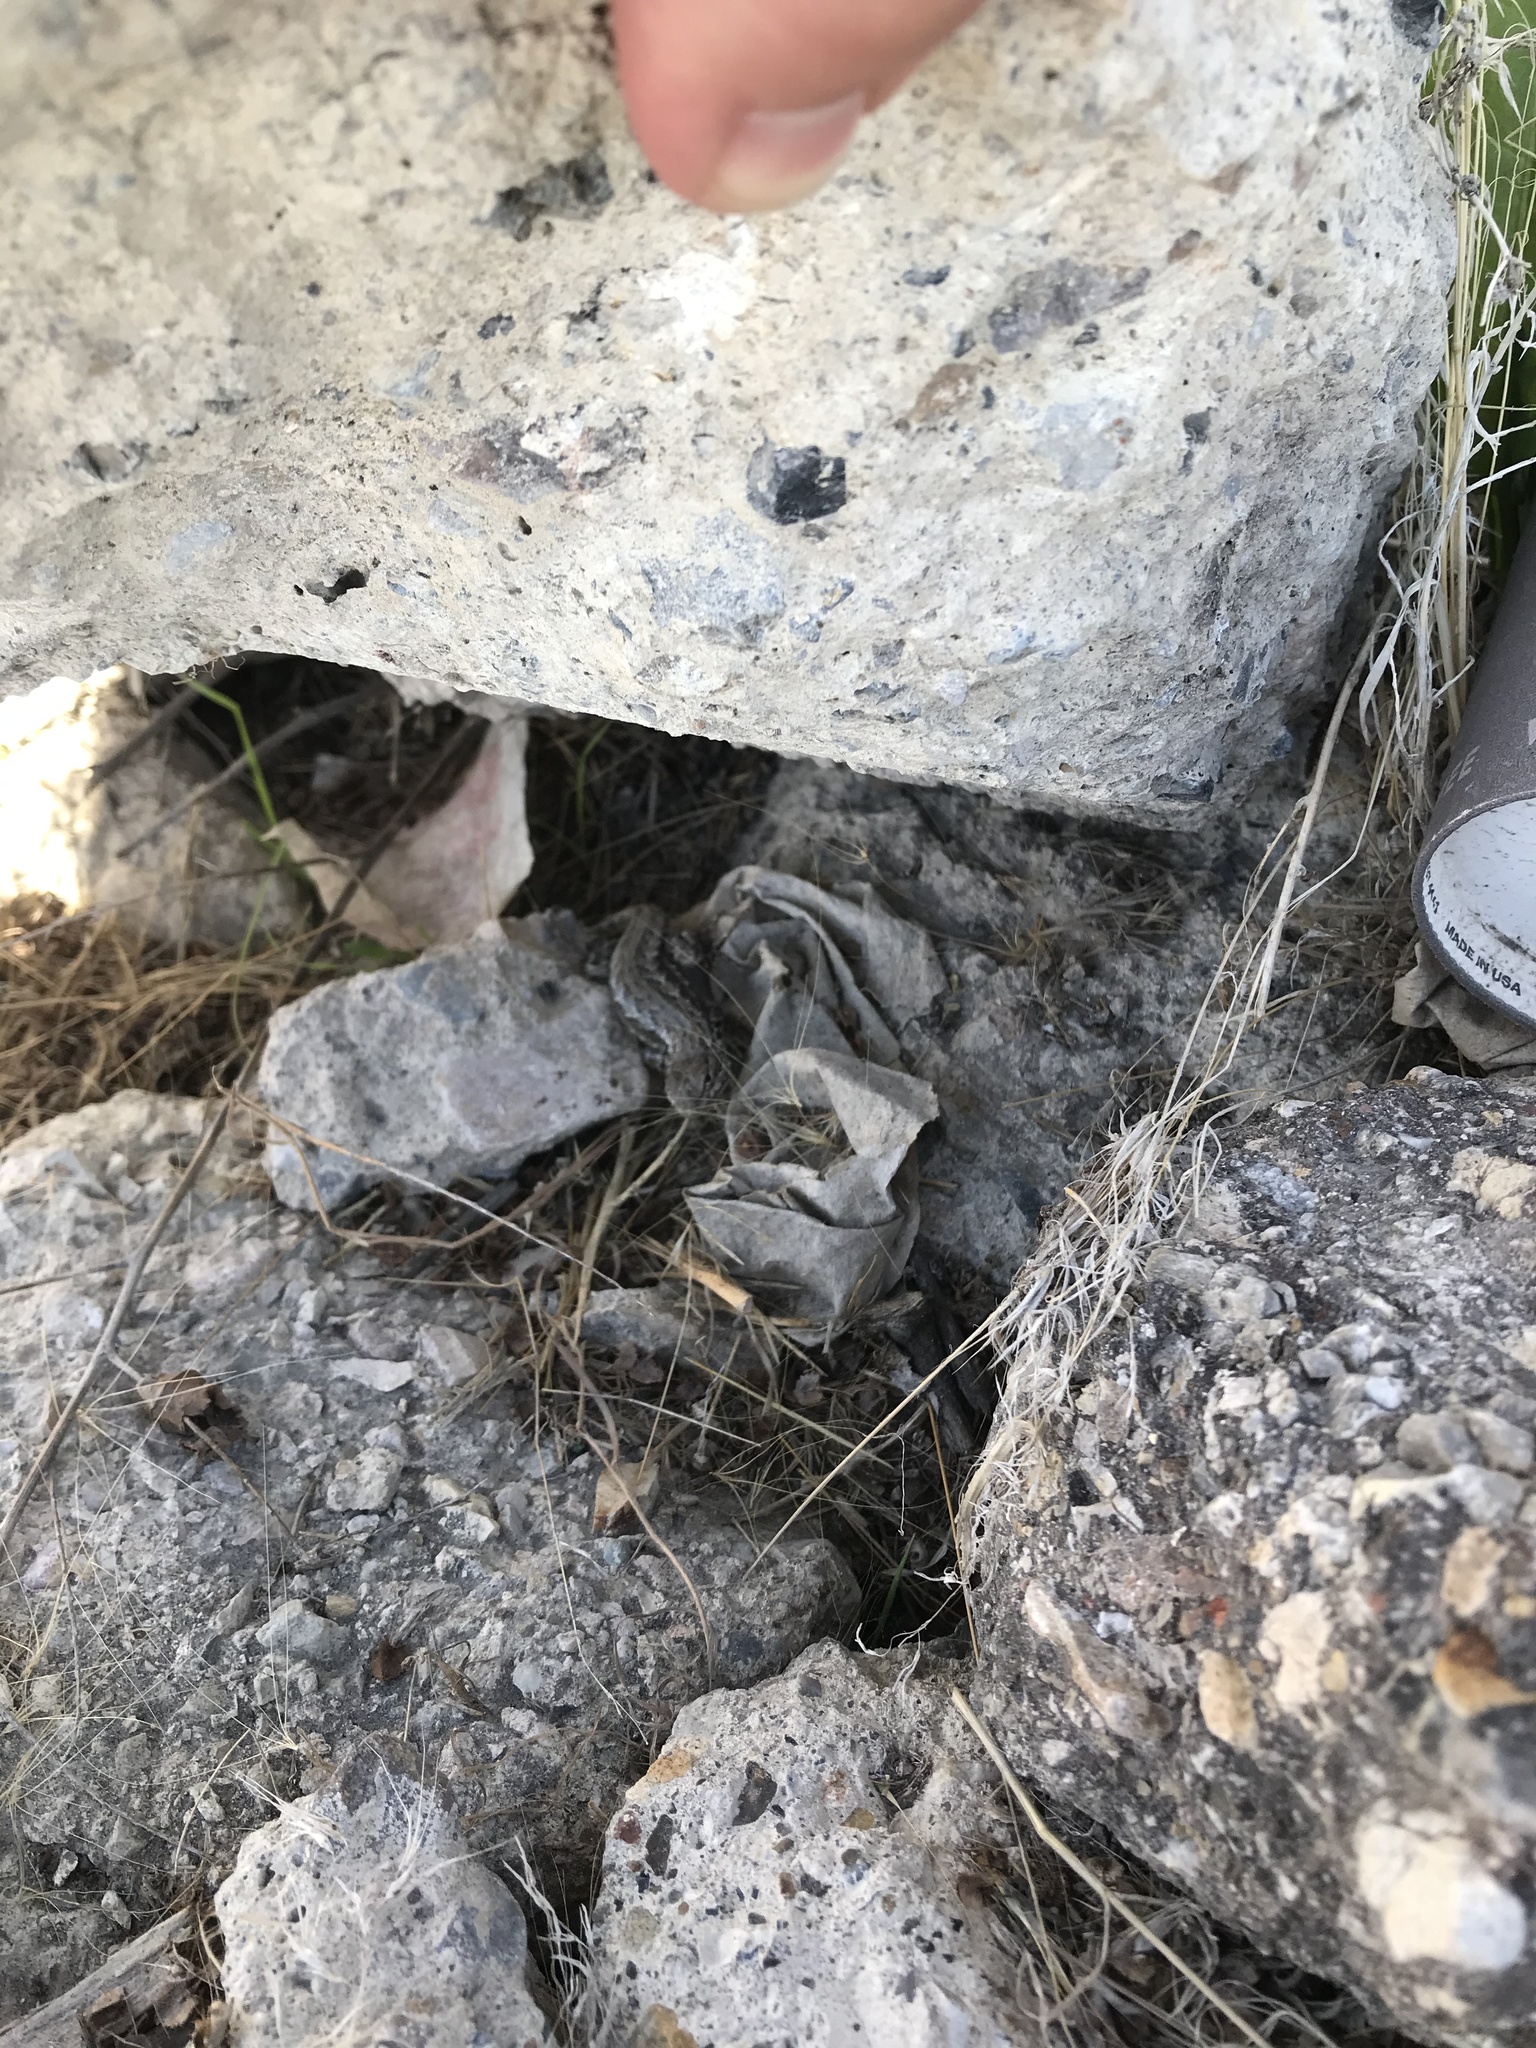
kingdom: Animalia
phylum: Chordata
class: Squamata
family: Phrynosomatidae
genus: Sceloporus
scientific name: Sceloporus graciosus
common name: Sagebrush lizard
